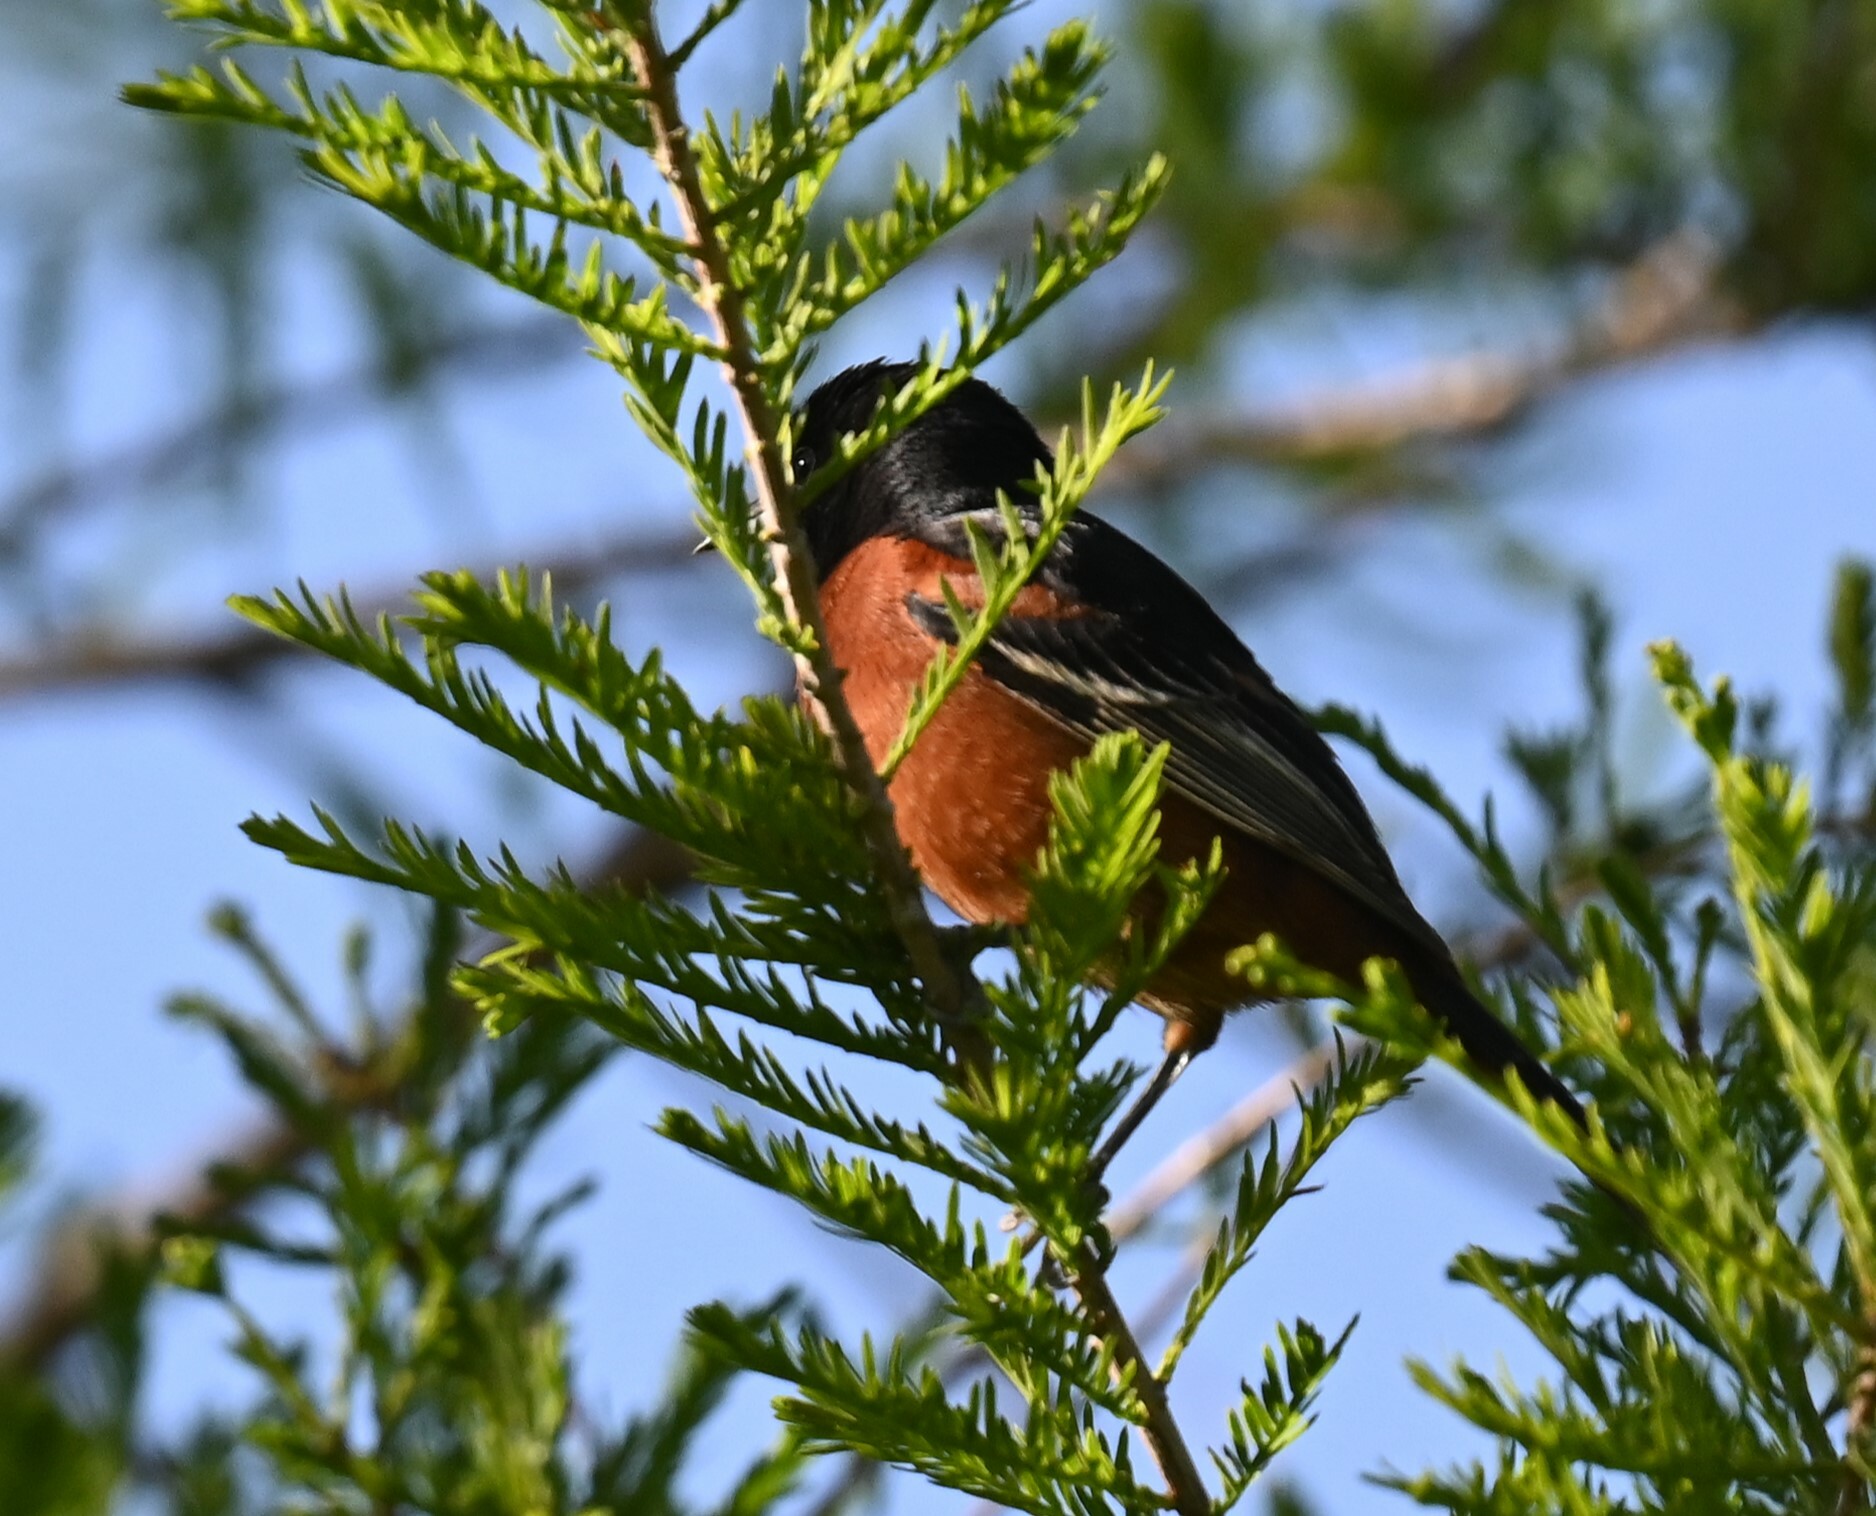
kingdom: Animalia
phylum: Chordata
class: Aves
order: Passeriformes
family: Icteridae
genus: Icterus
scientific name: Icterus spurius
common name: Orchard oriole
